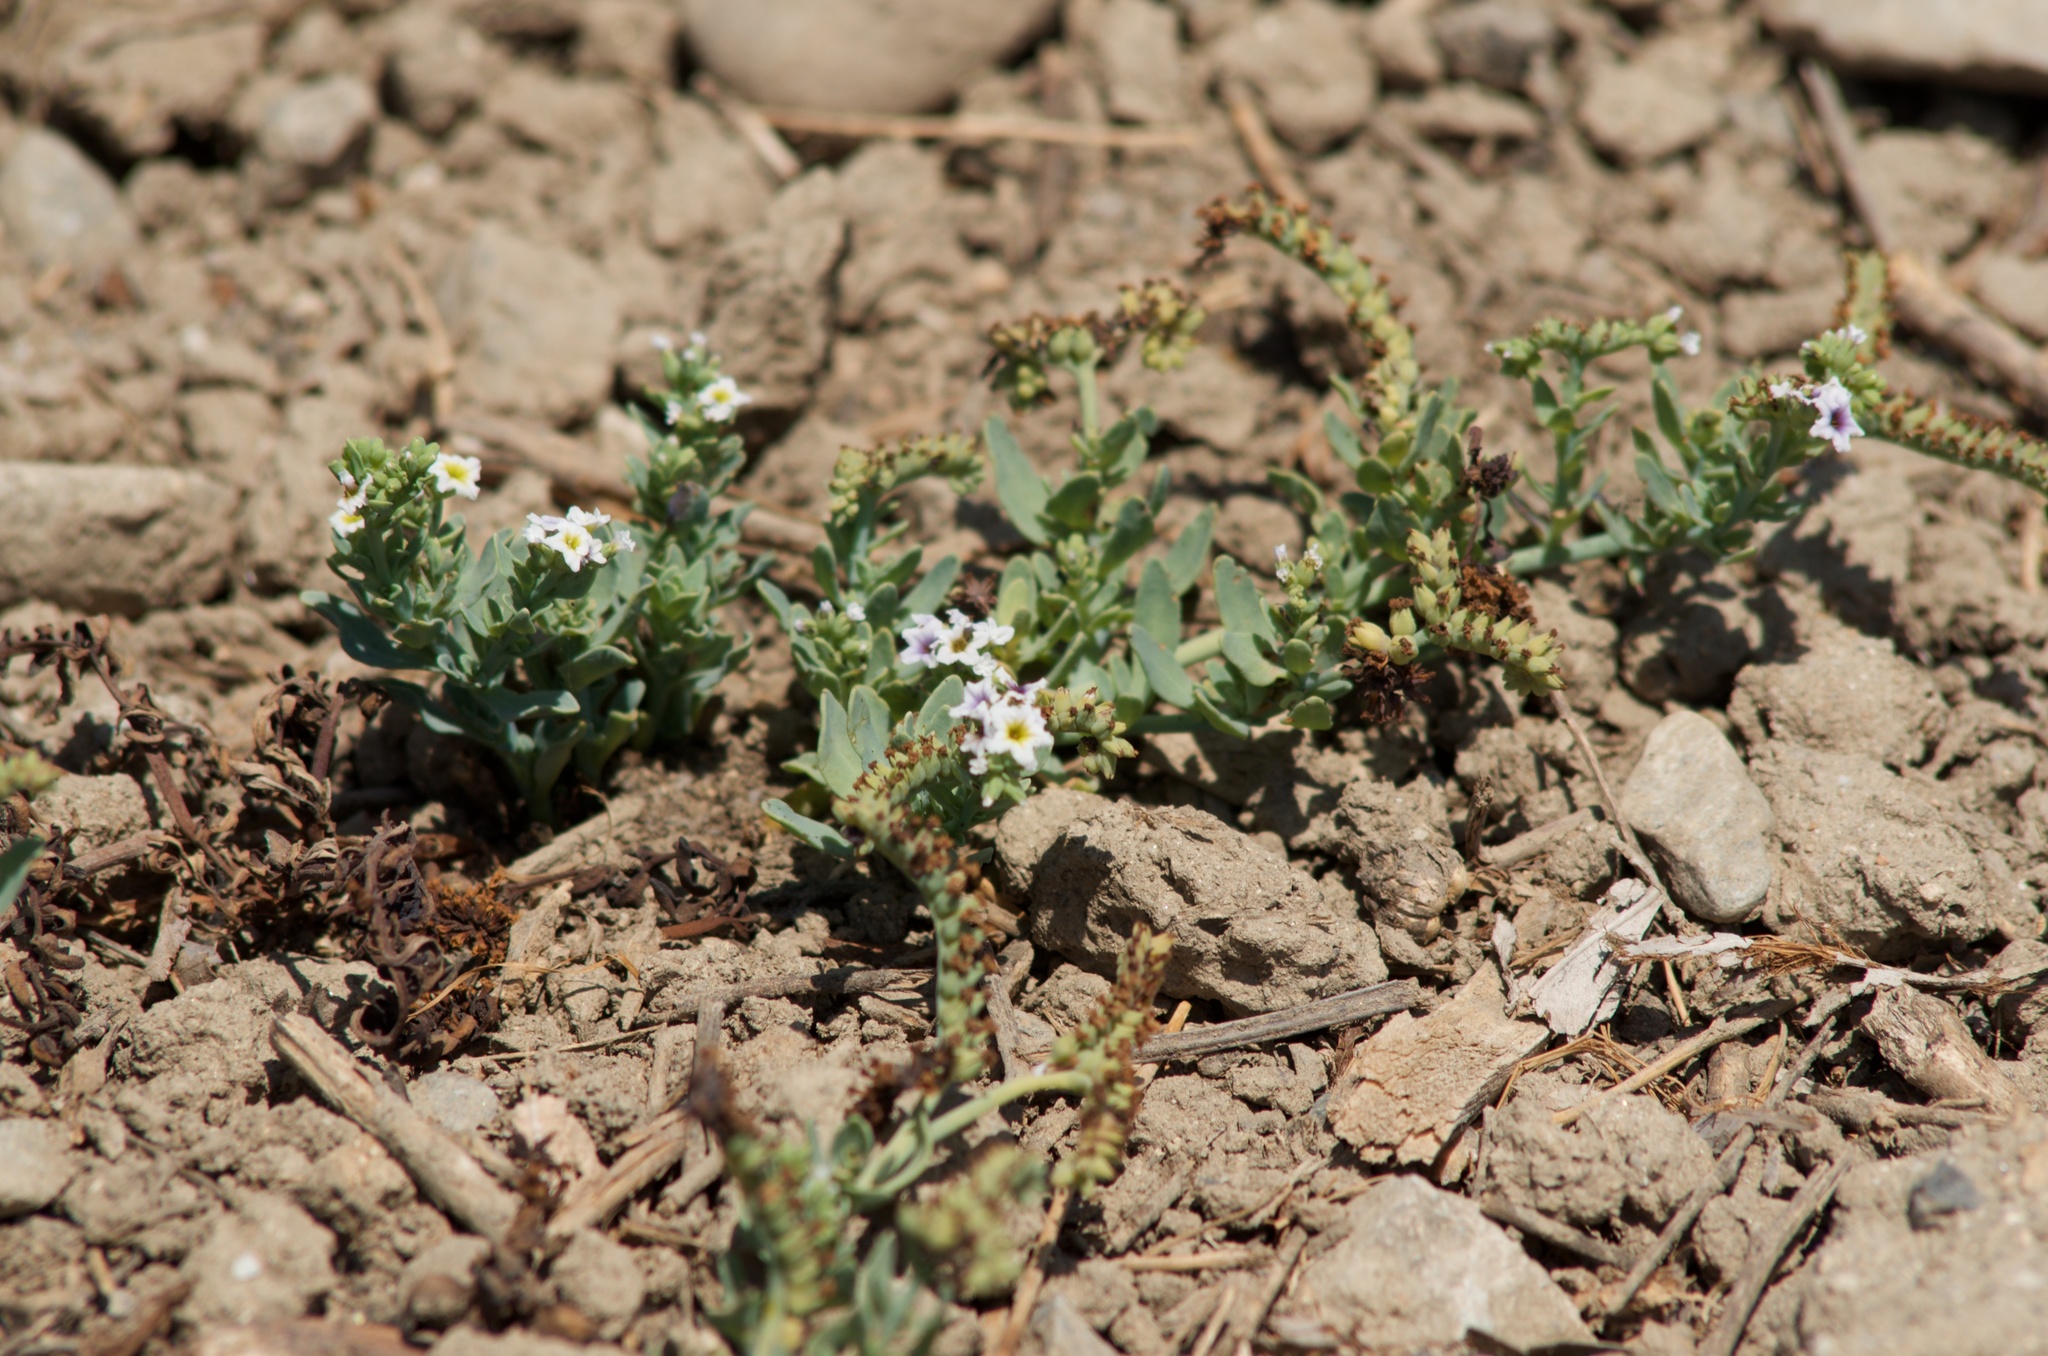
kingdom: Plantae
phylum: Tracheophyta
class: Magnoliopsida
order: Boraginales
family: Heliotropiaceae
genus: Heliotropium
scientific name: Heliotropium curassavicum
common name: Seaside heliotrope
